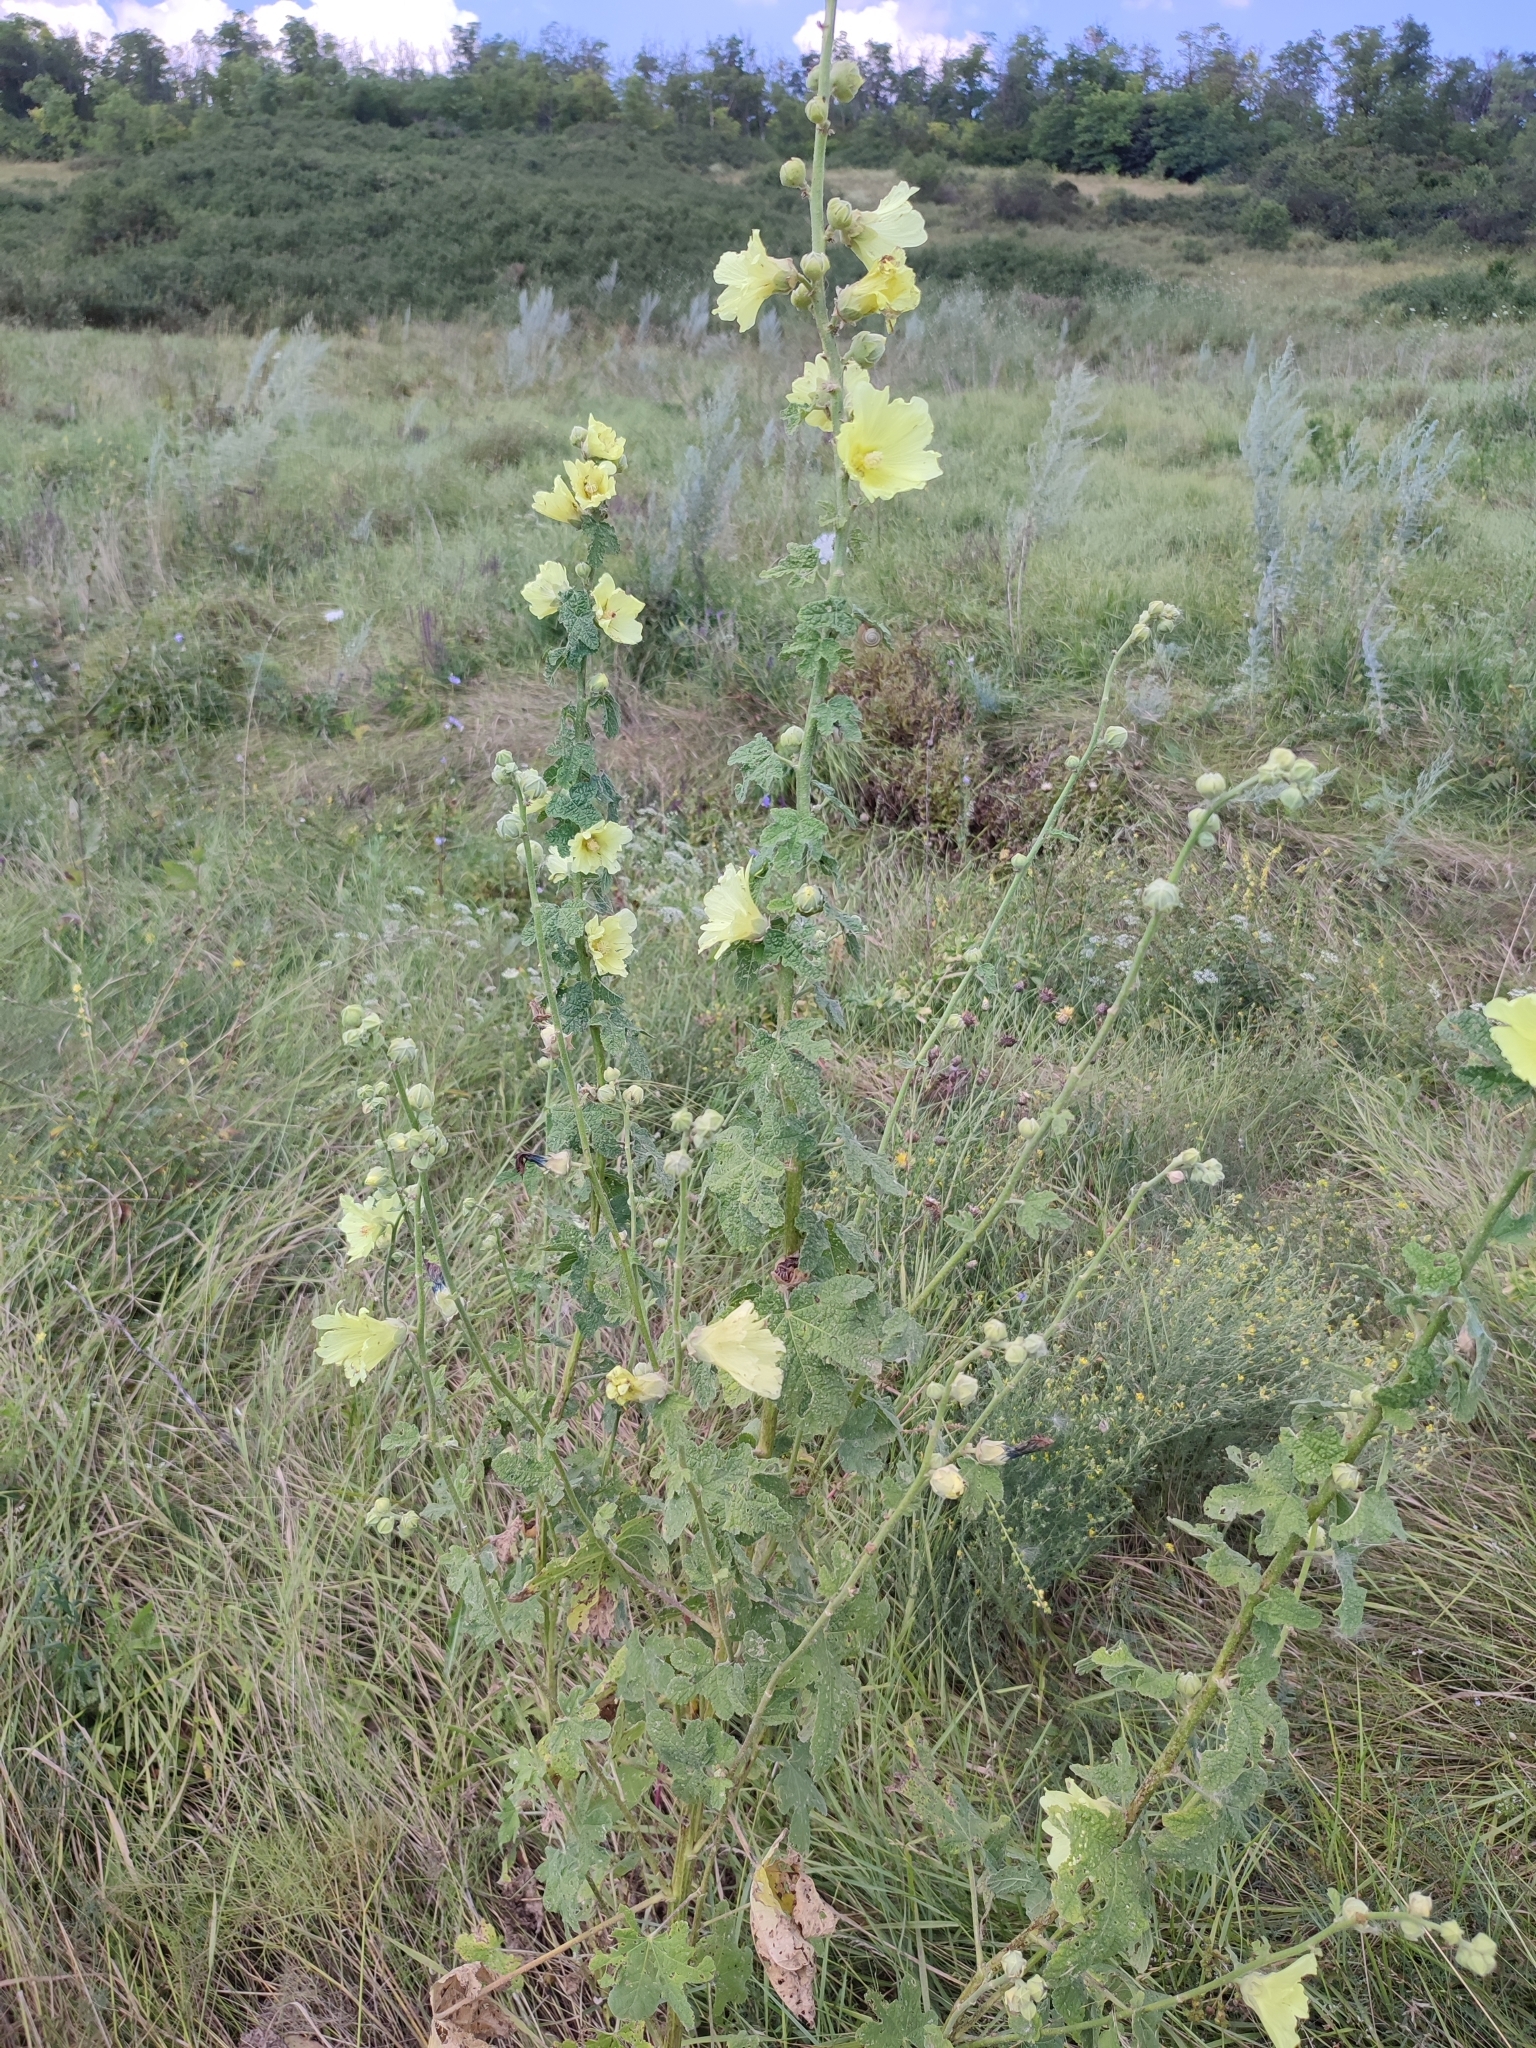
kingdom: Plantae
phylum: Tracheophyta
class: Magnoliopsida
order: Malvales
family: Malvaceae
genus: Alcea
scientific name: Alcea rugosa
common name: Russian hollyhock
